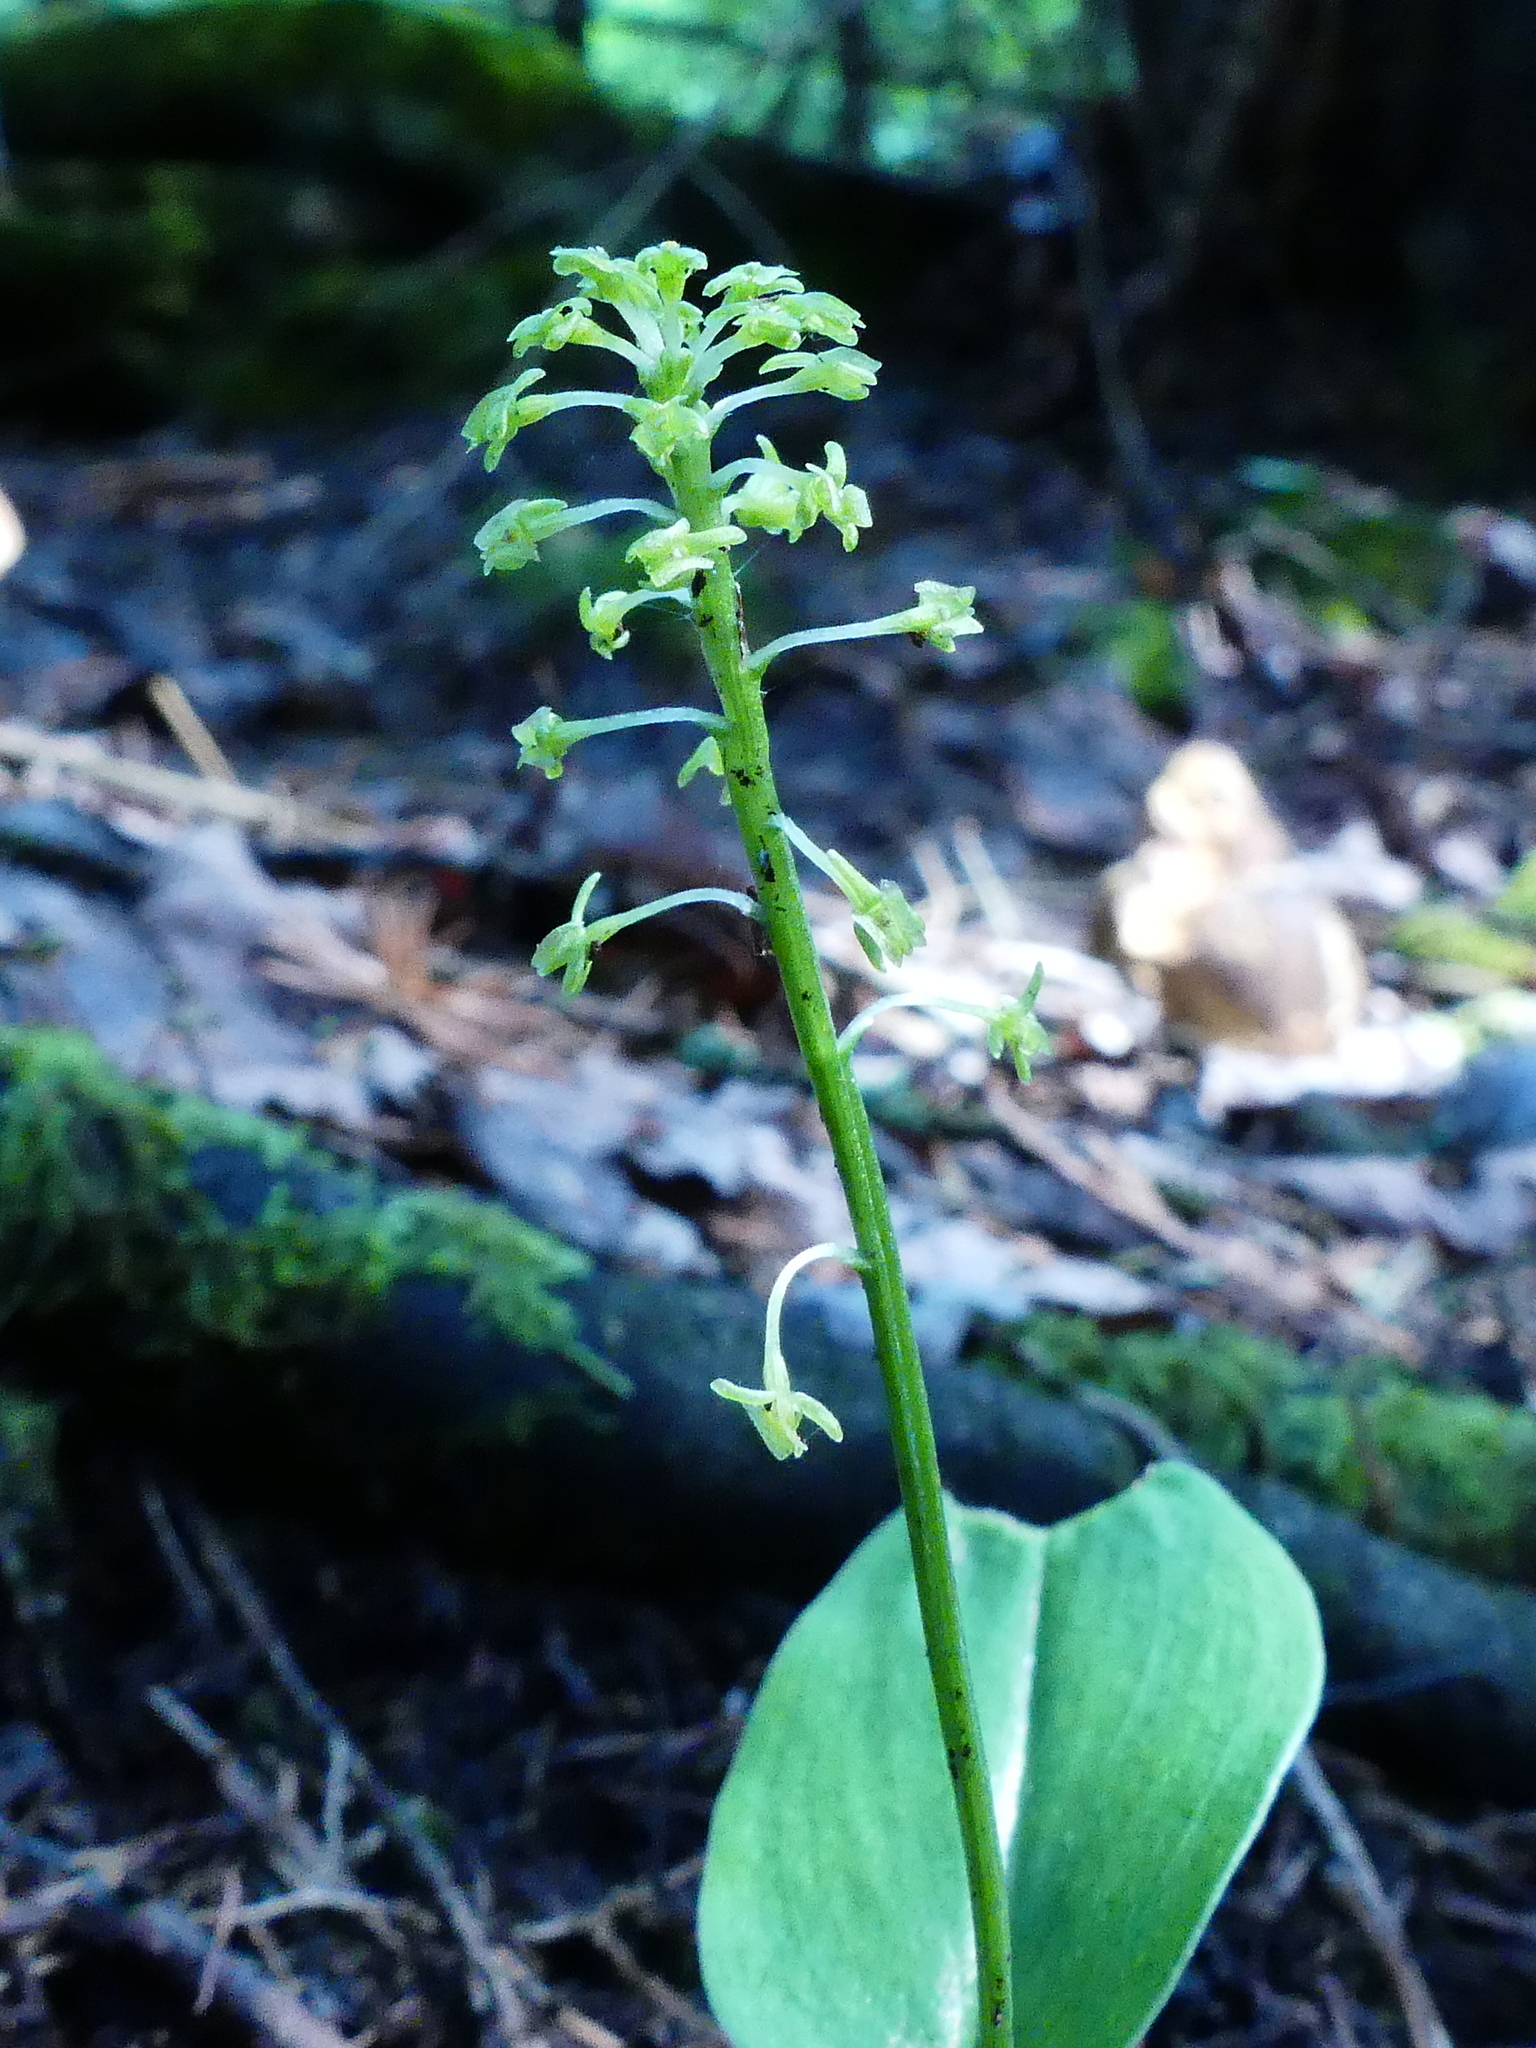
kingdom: Plantae
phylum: Tracheophyta
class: Liliopsida
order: Asparagales
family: Orchidaceae
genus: Malaxis
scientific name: Malaxis unifolia
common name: Green adder's-mouth
